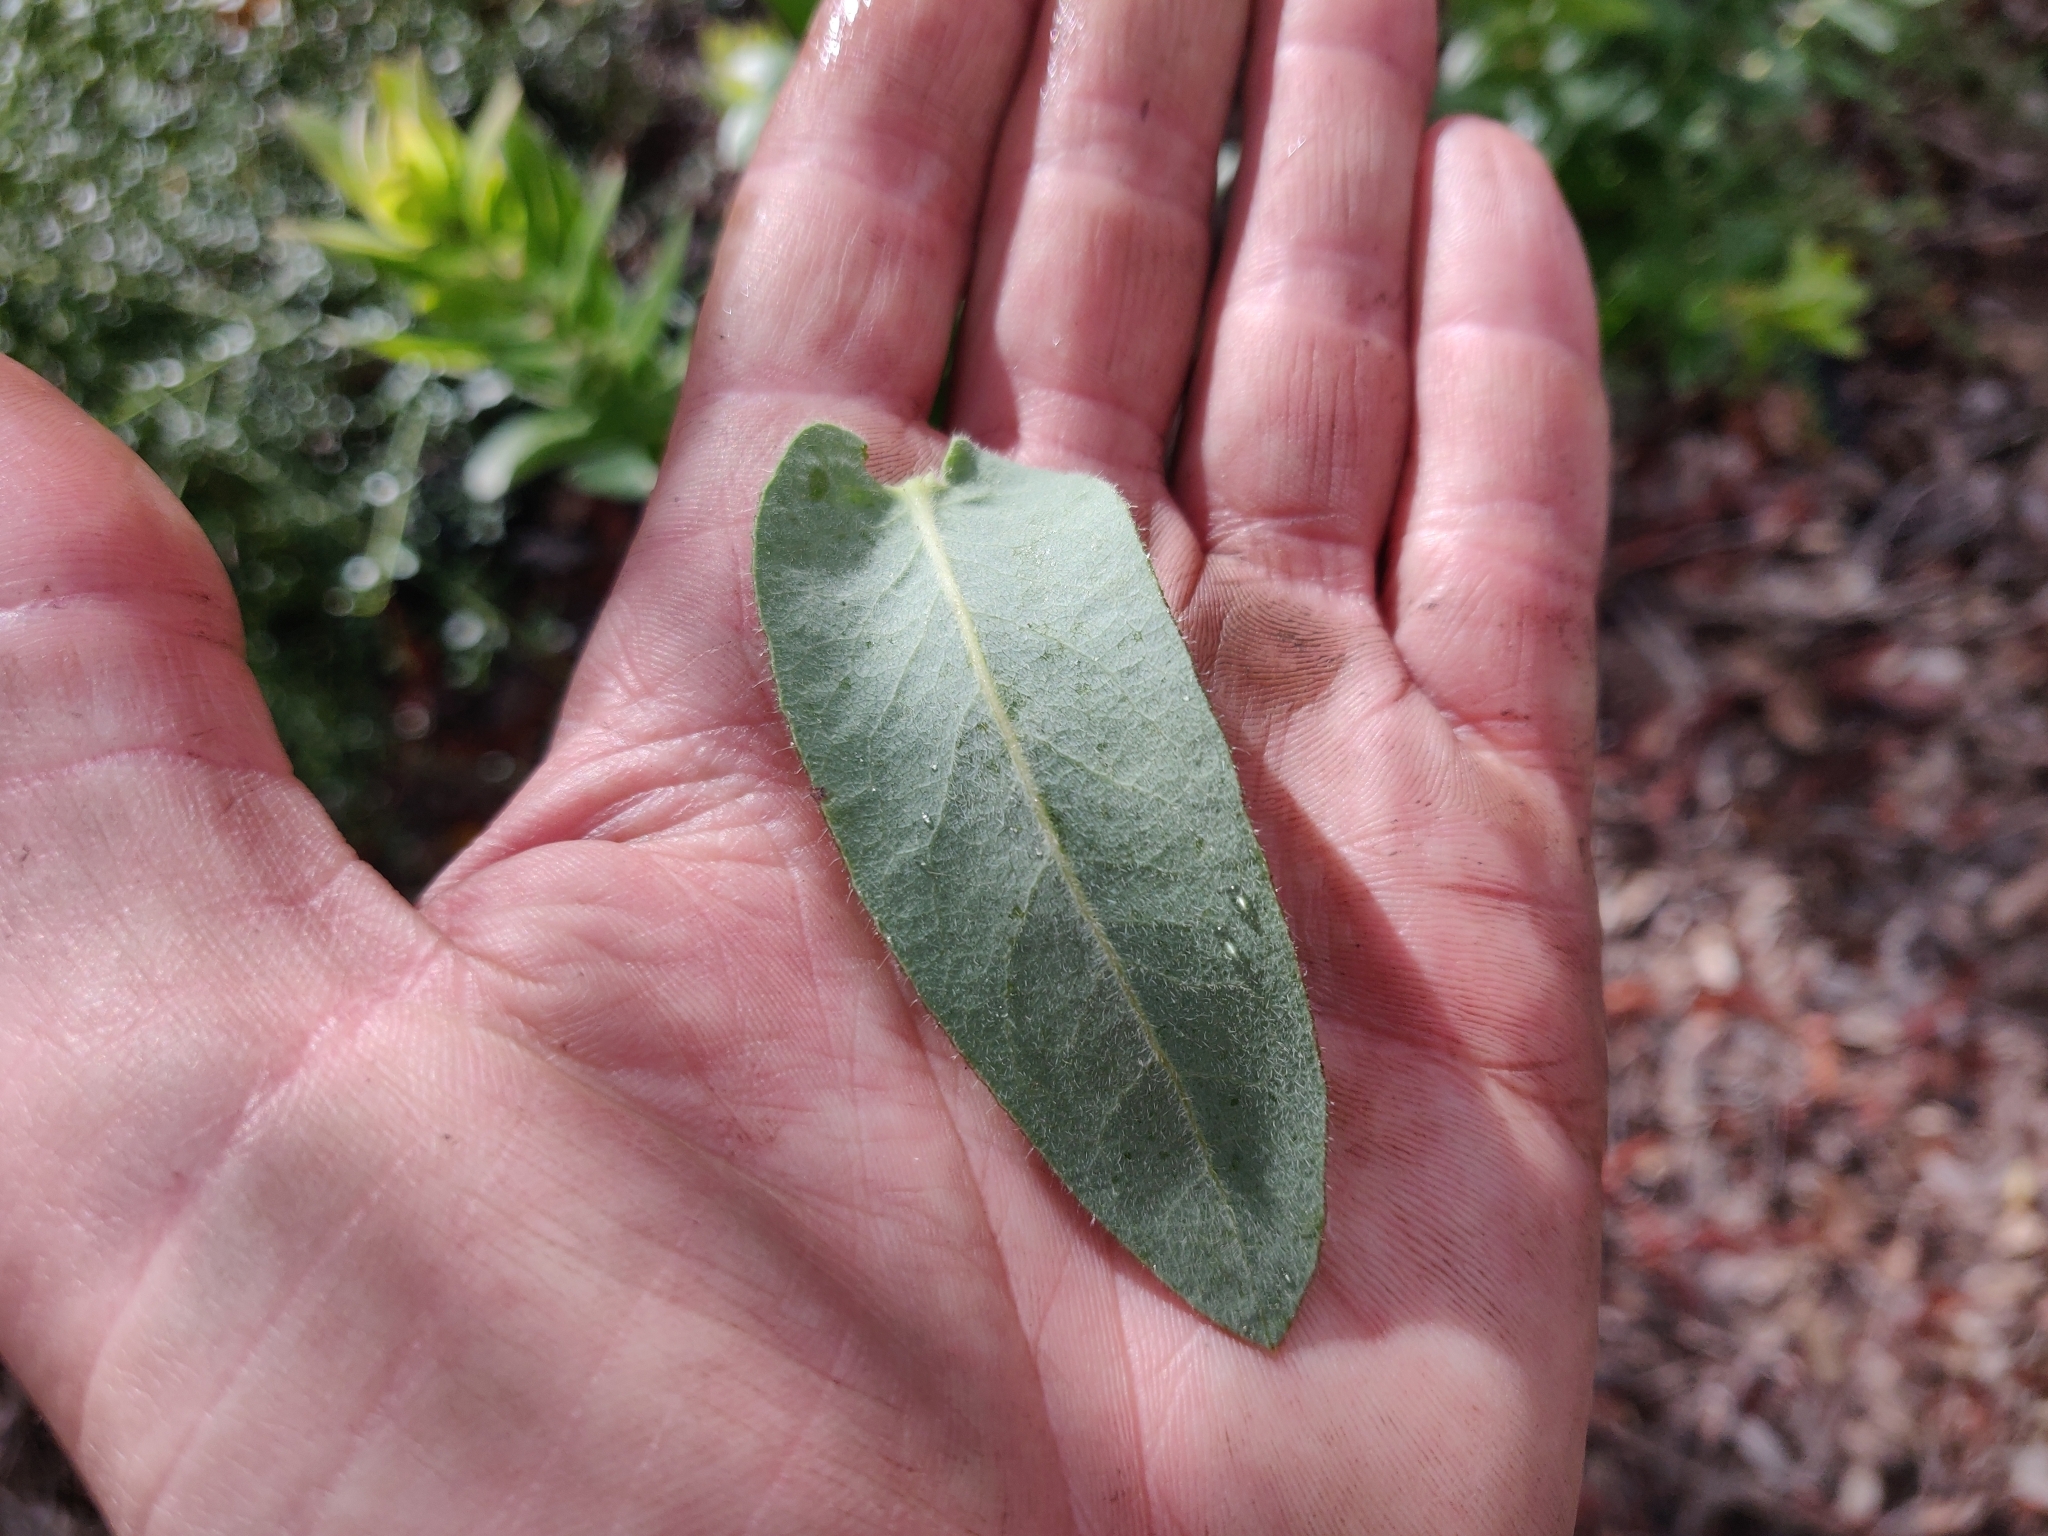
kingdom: Plantae
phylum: Tracheophyta
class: Magnoliopsida
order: Ericales
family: Ericaceae
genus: Arctostaphylos
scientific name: Arctostaphylos andersonii
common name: Santa cruz manzanita
